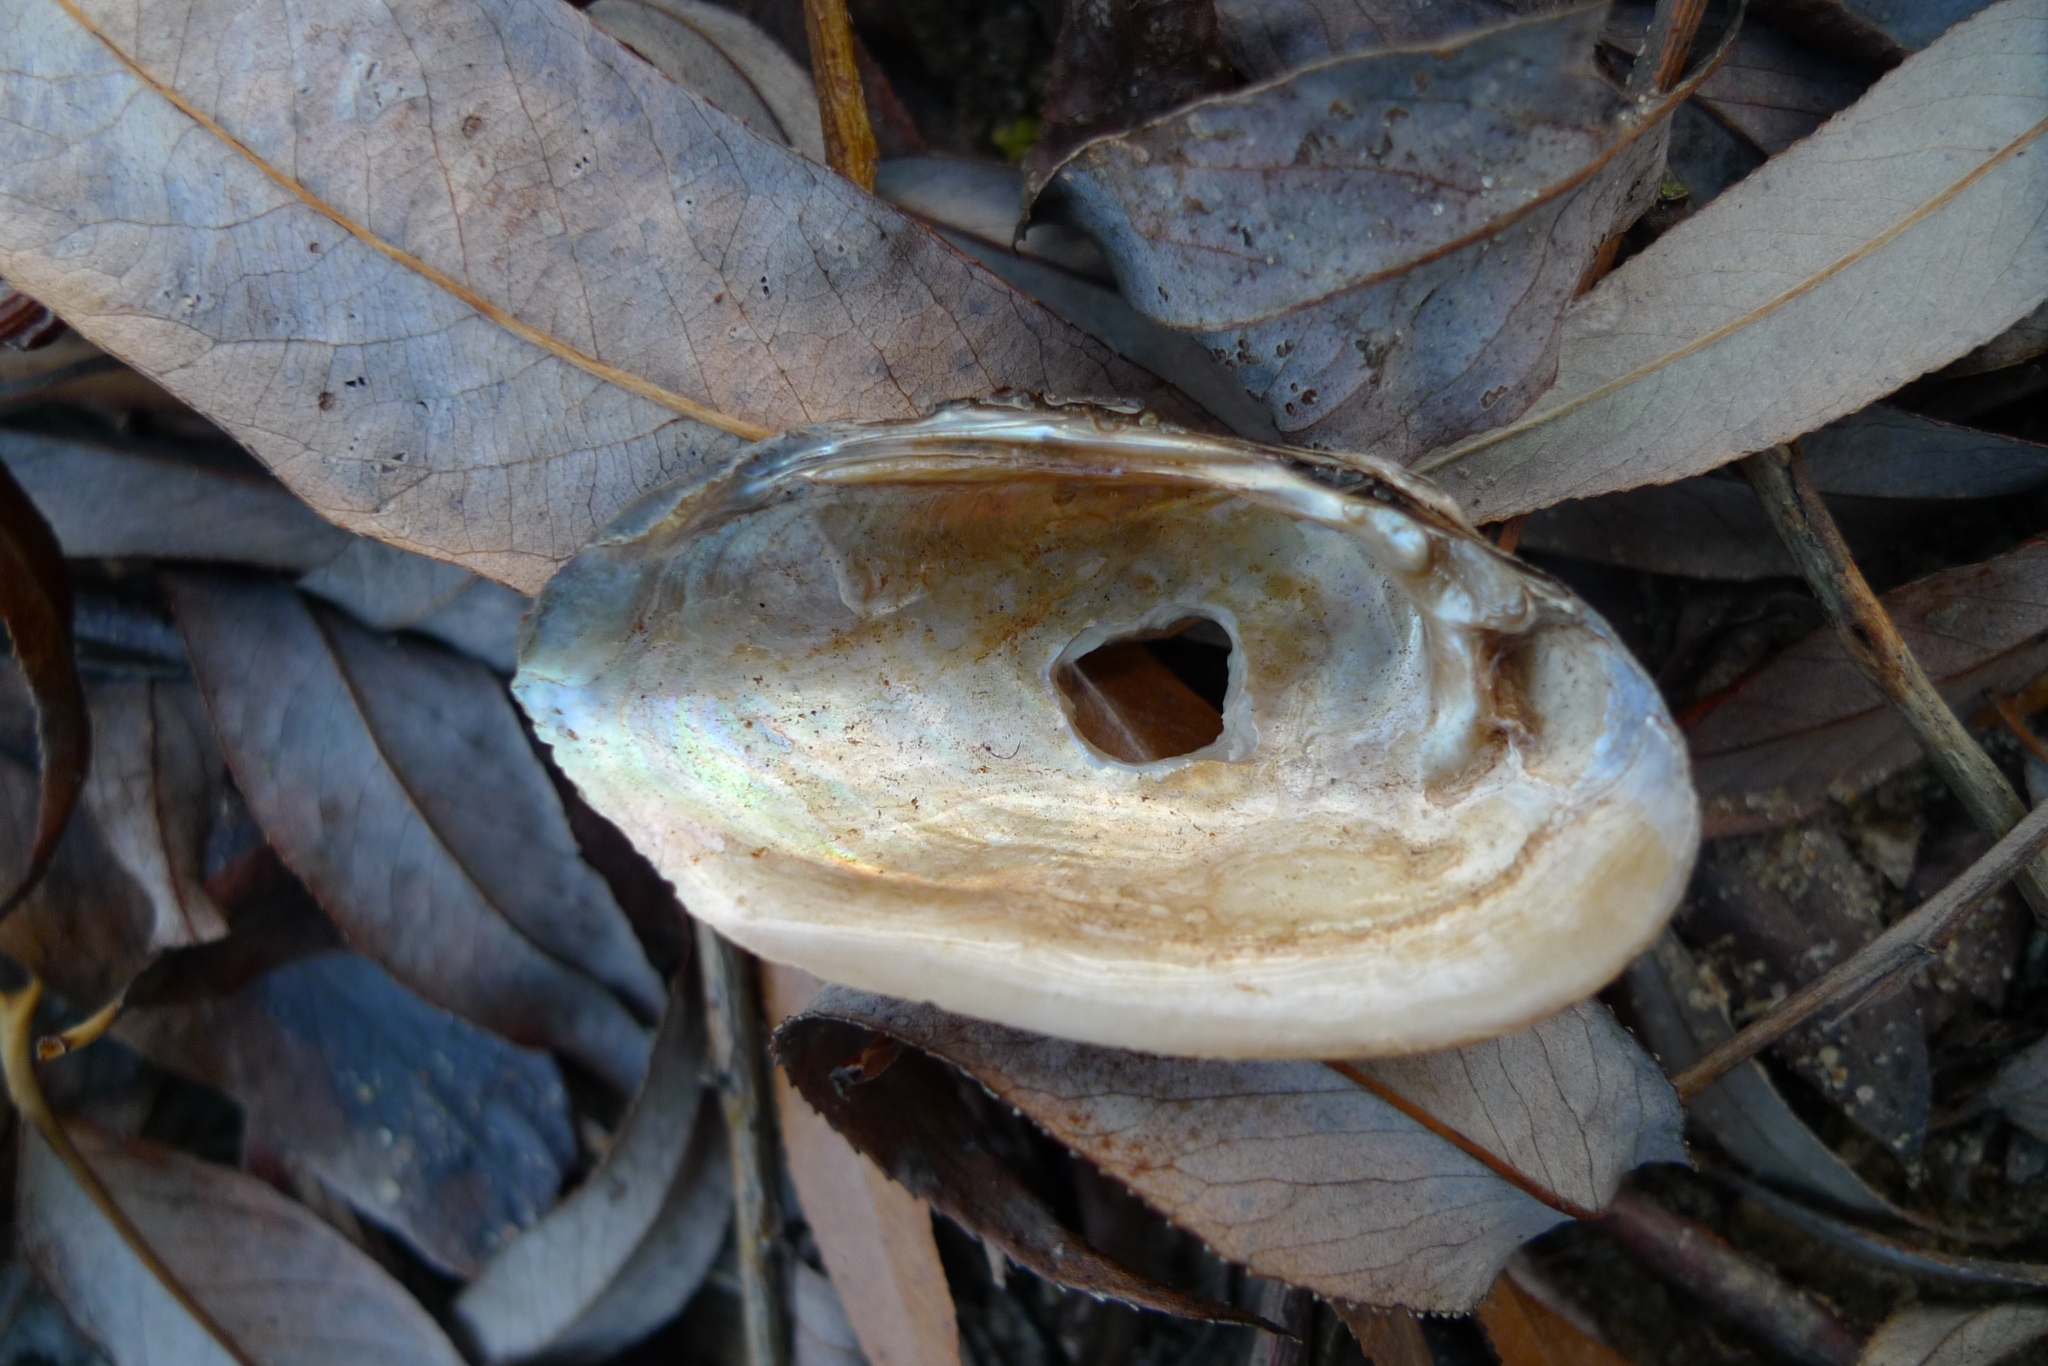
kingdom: Animalia
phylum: Mollusca
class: Bivalvia
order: Unionida
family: Unionidae
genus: Unio
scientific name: Unio crassus
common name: Thick shelled river mussel
